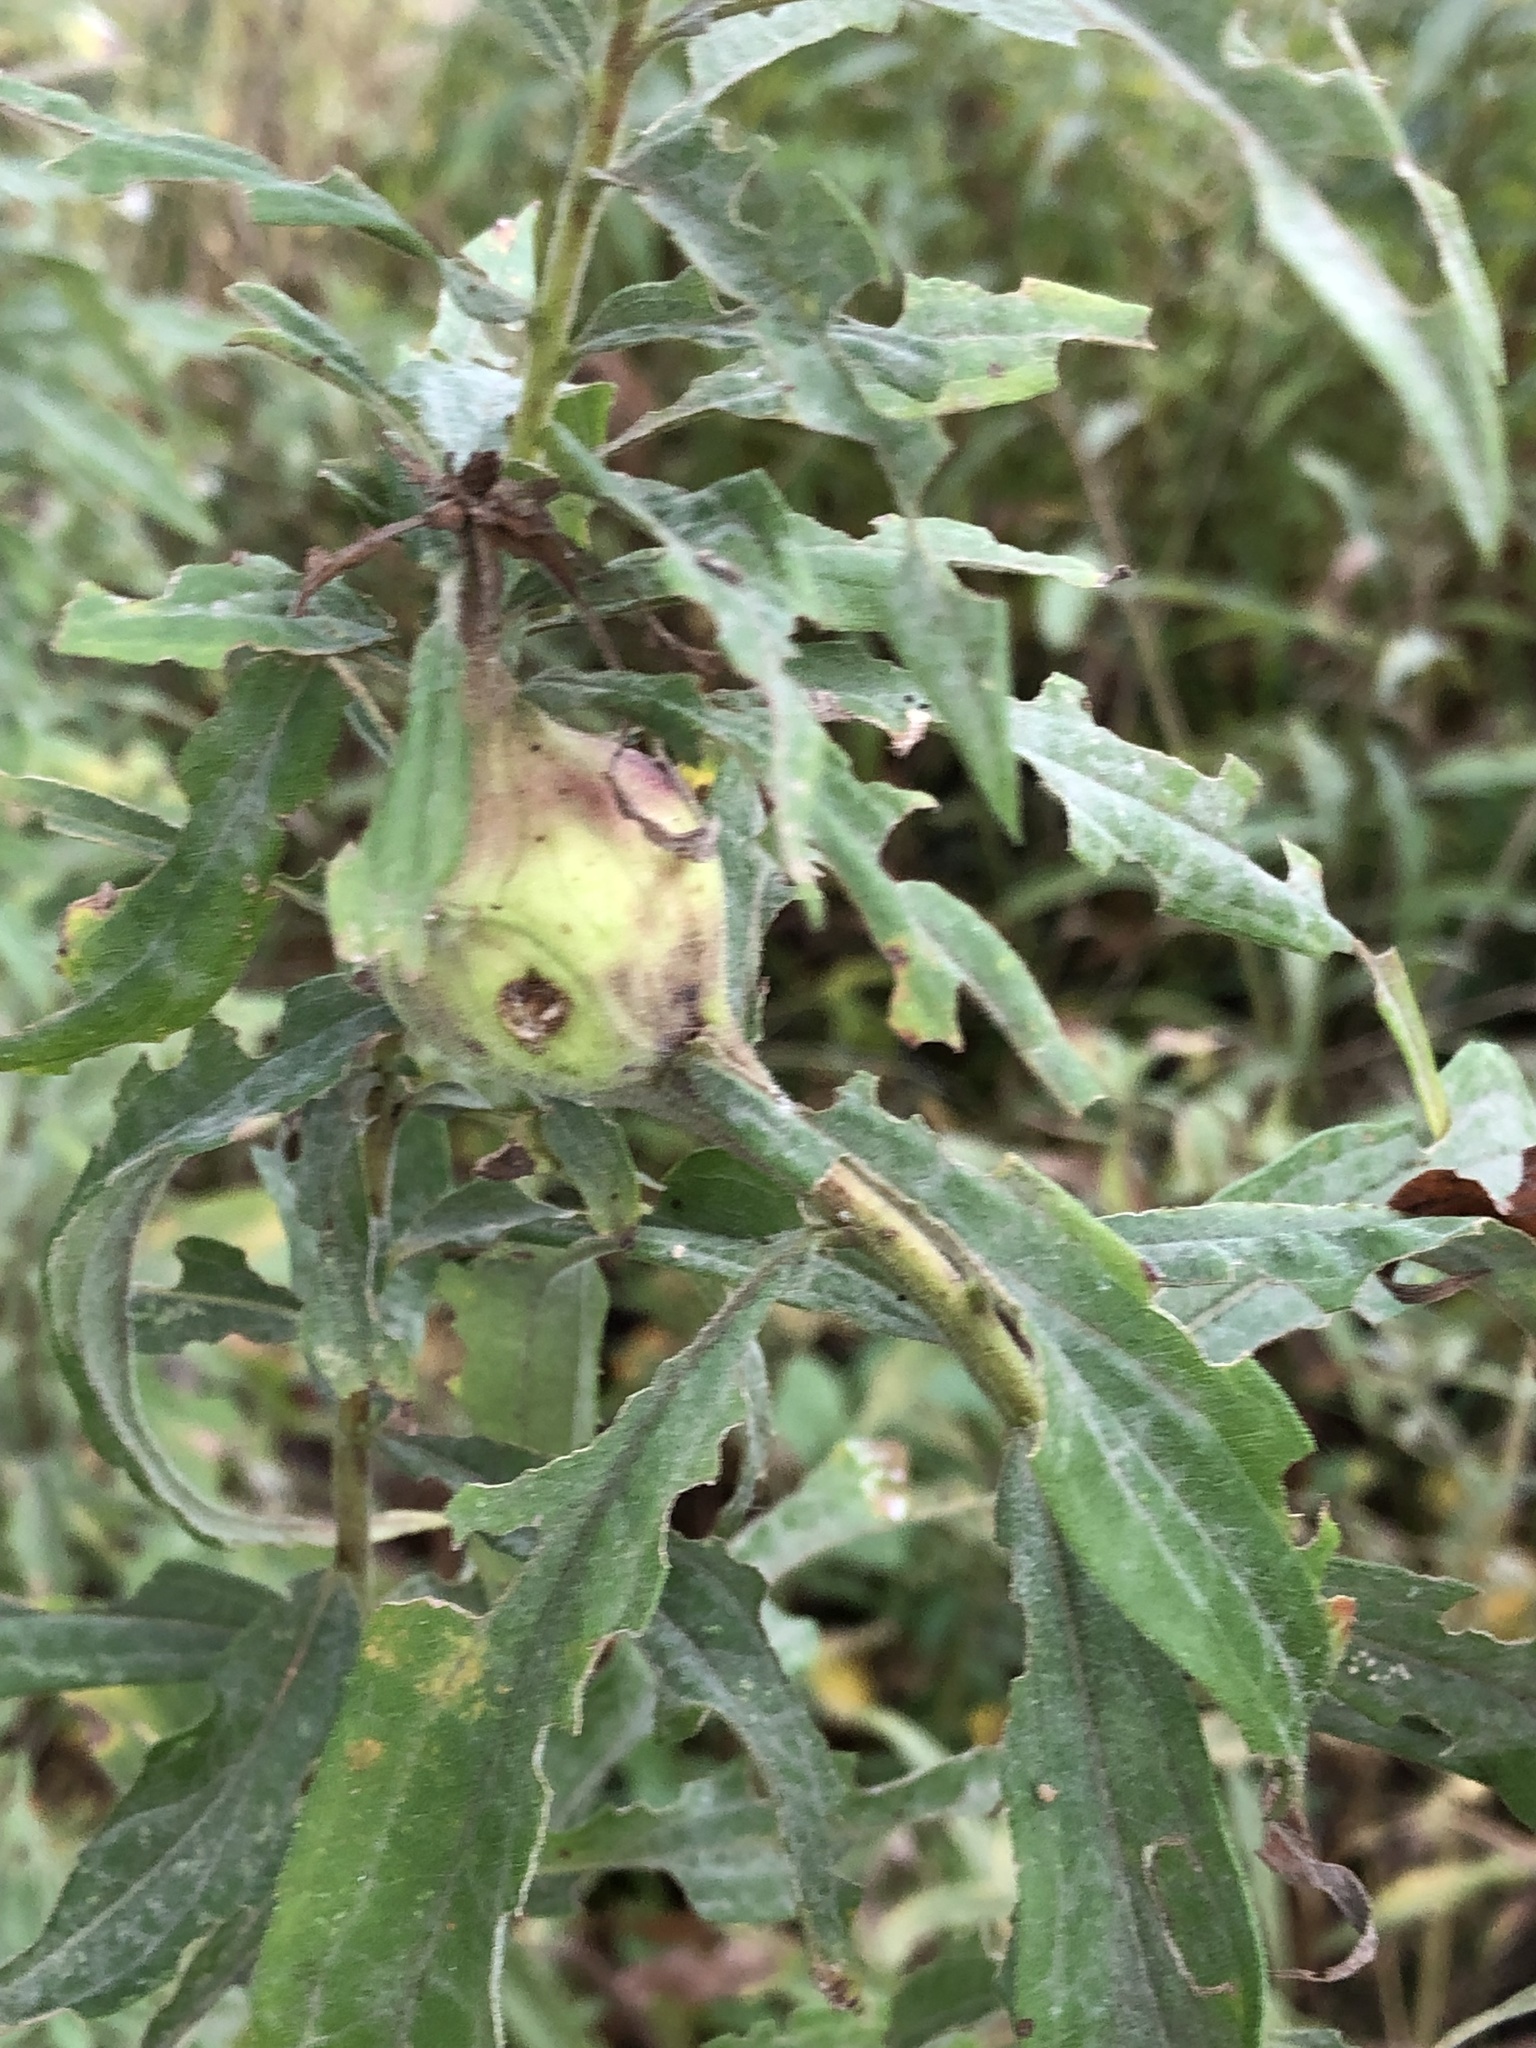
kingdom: Animalia
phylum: Arthropoda
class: Insecta
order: Diptera
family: Tephritidae
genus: Eurosta
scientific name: Eurosta solidaginis
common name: Goldenrod gall fly
